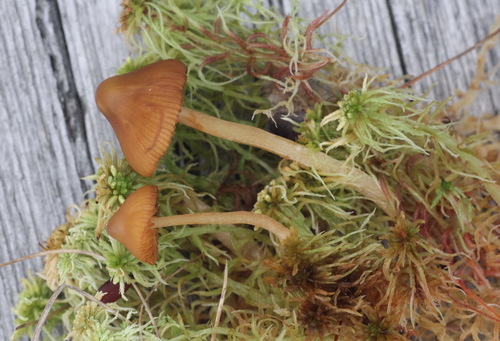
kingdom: Fungi
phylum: Basidiomycota
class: Agaricomycetes
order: Agaricales
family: Hymenogastraceae
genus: Galerina
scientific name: Galerina tibiicystis
